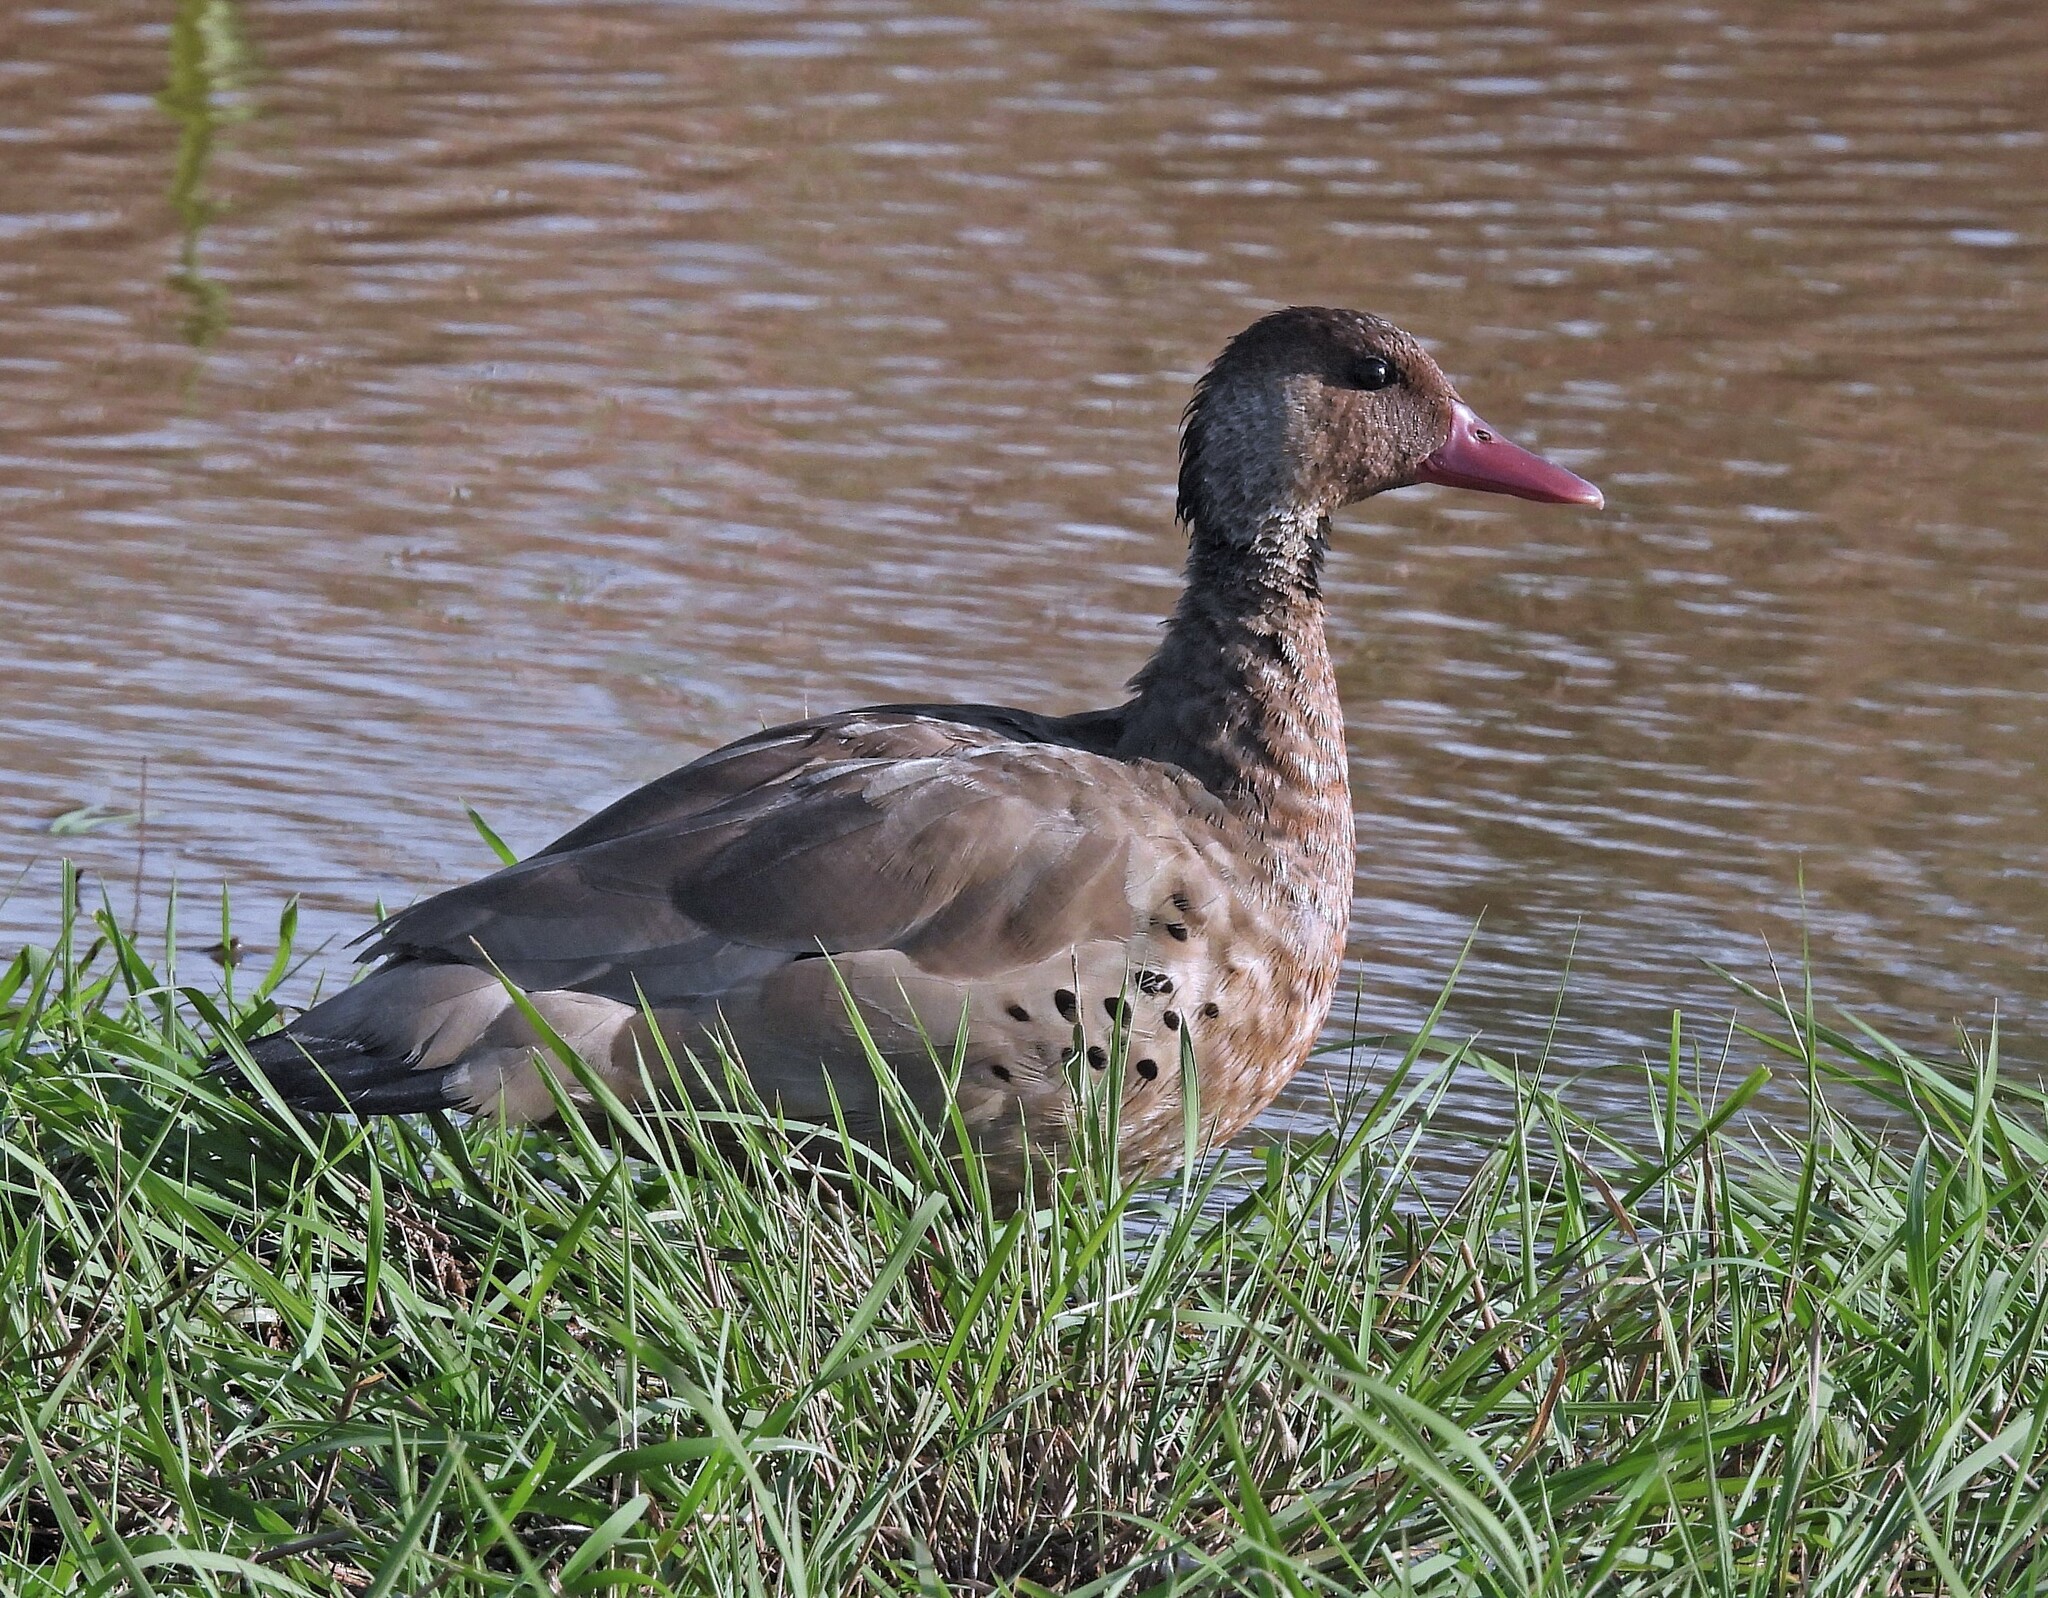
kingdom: Animalia
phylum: Chordata
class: Aves
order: Anseriformes
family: Anatidae
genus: Amazonetta
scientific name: Amazonetta brasiliensis
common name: Brazilian teal
